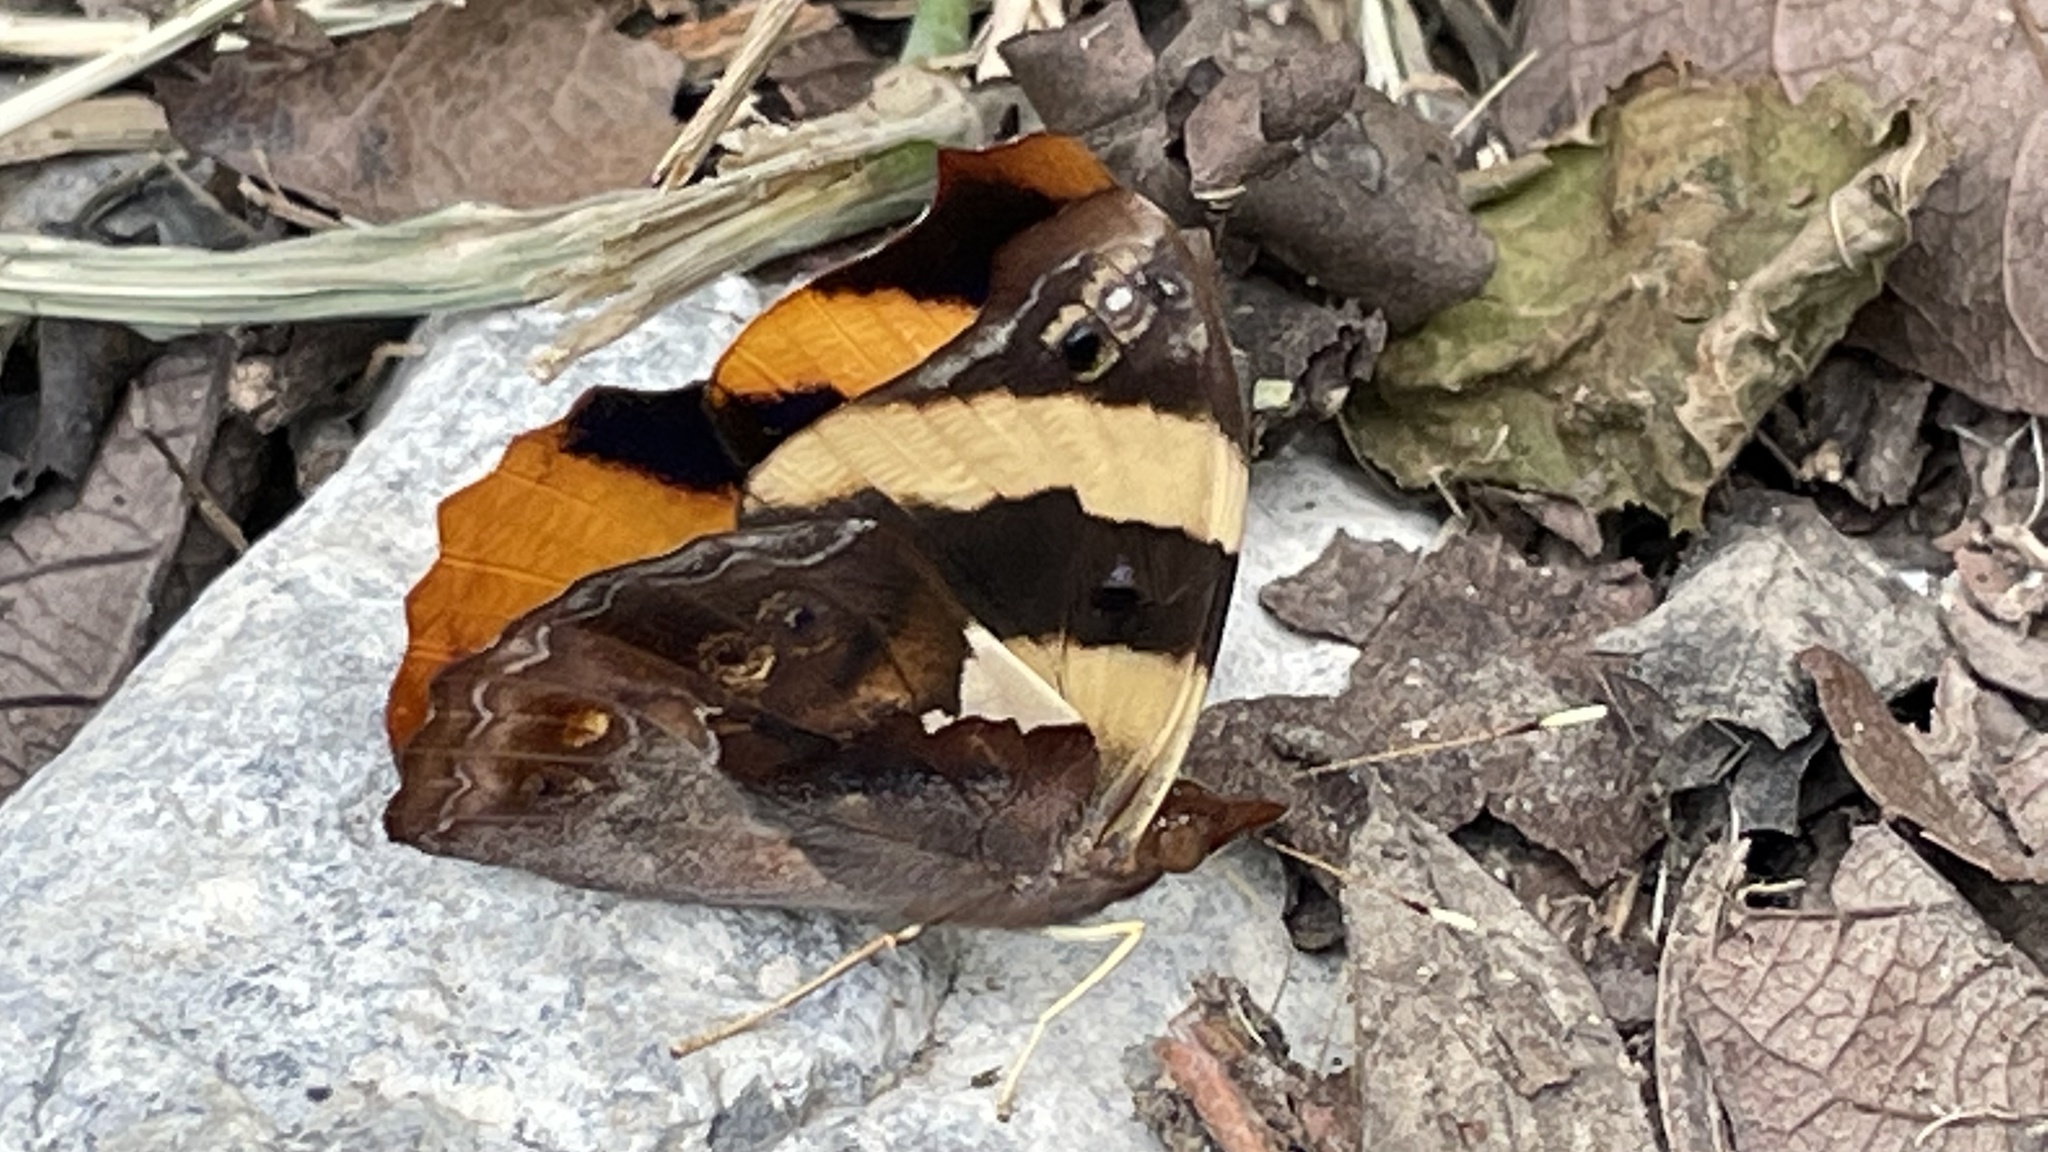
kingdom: Animalia
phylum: Arthropoda
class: Insecta
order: Lepidoptera
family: Nymphalidae
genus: Epiphile
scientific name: Epiphile adrasta
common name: Common banner
